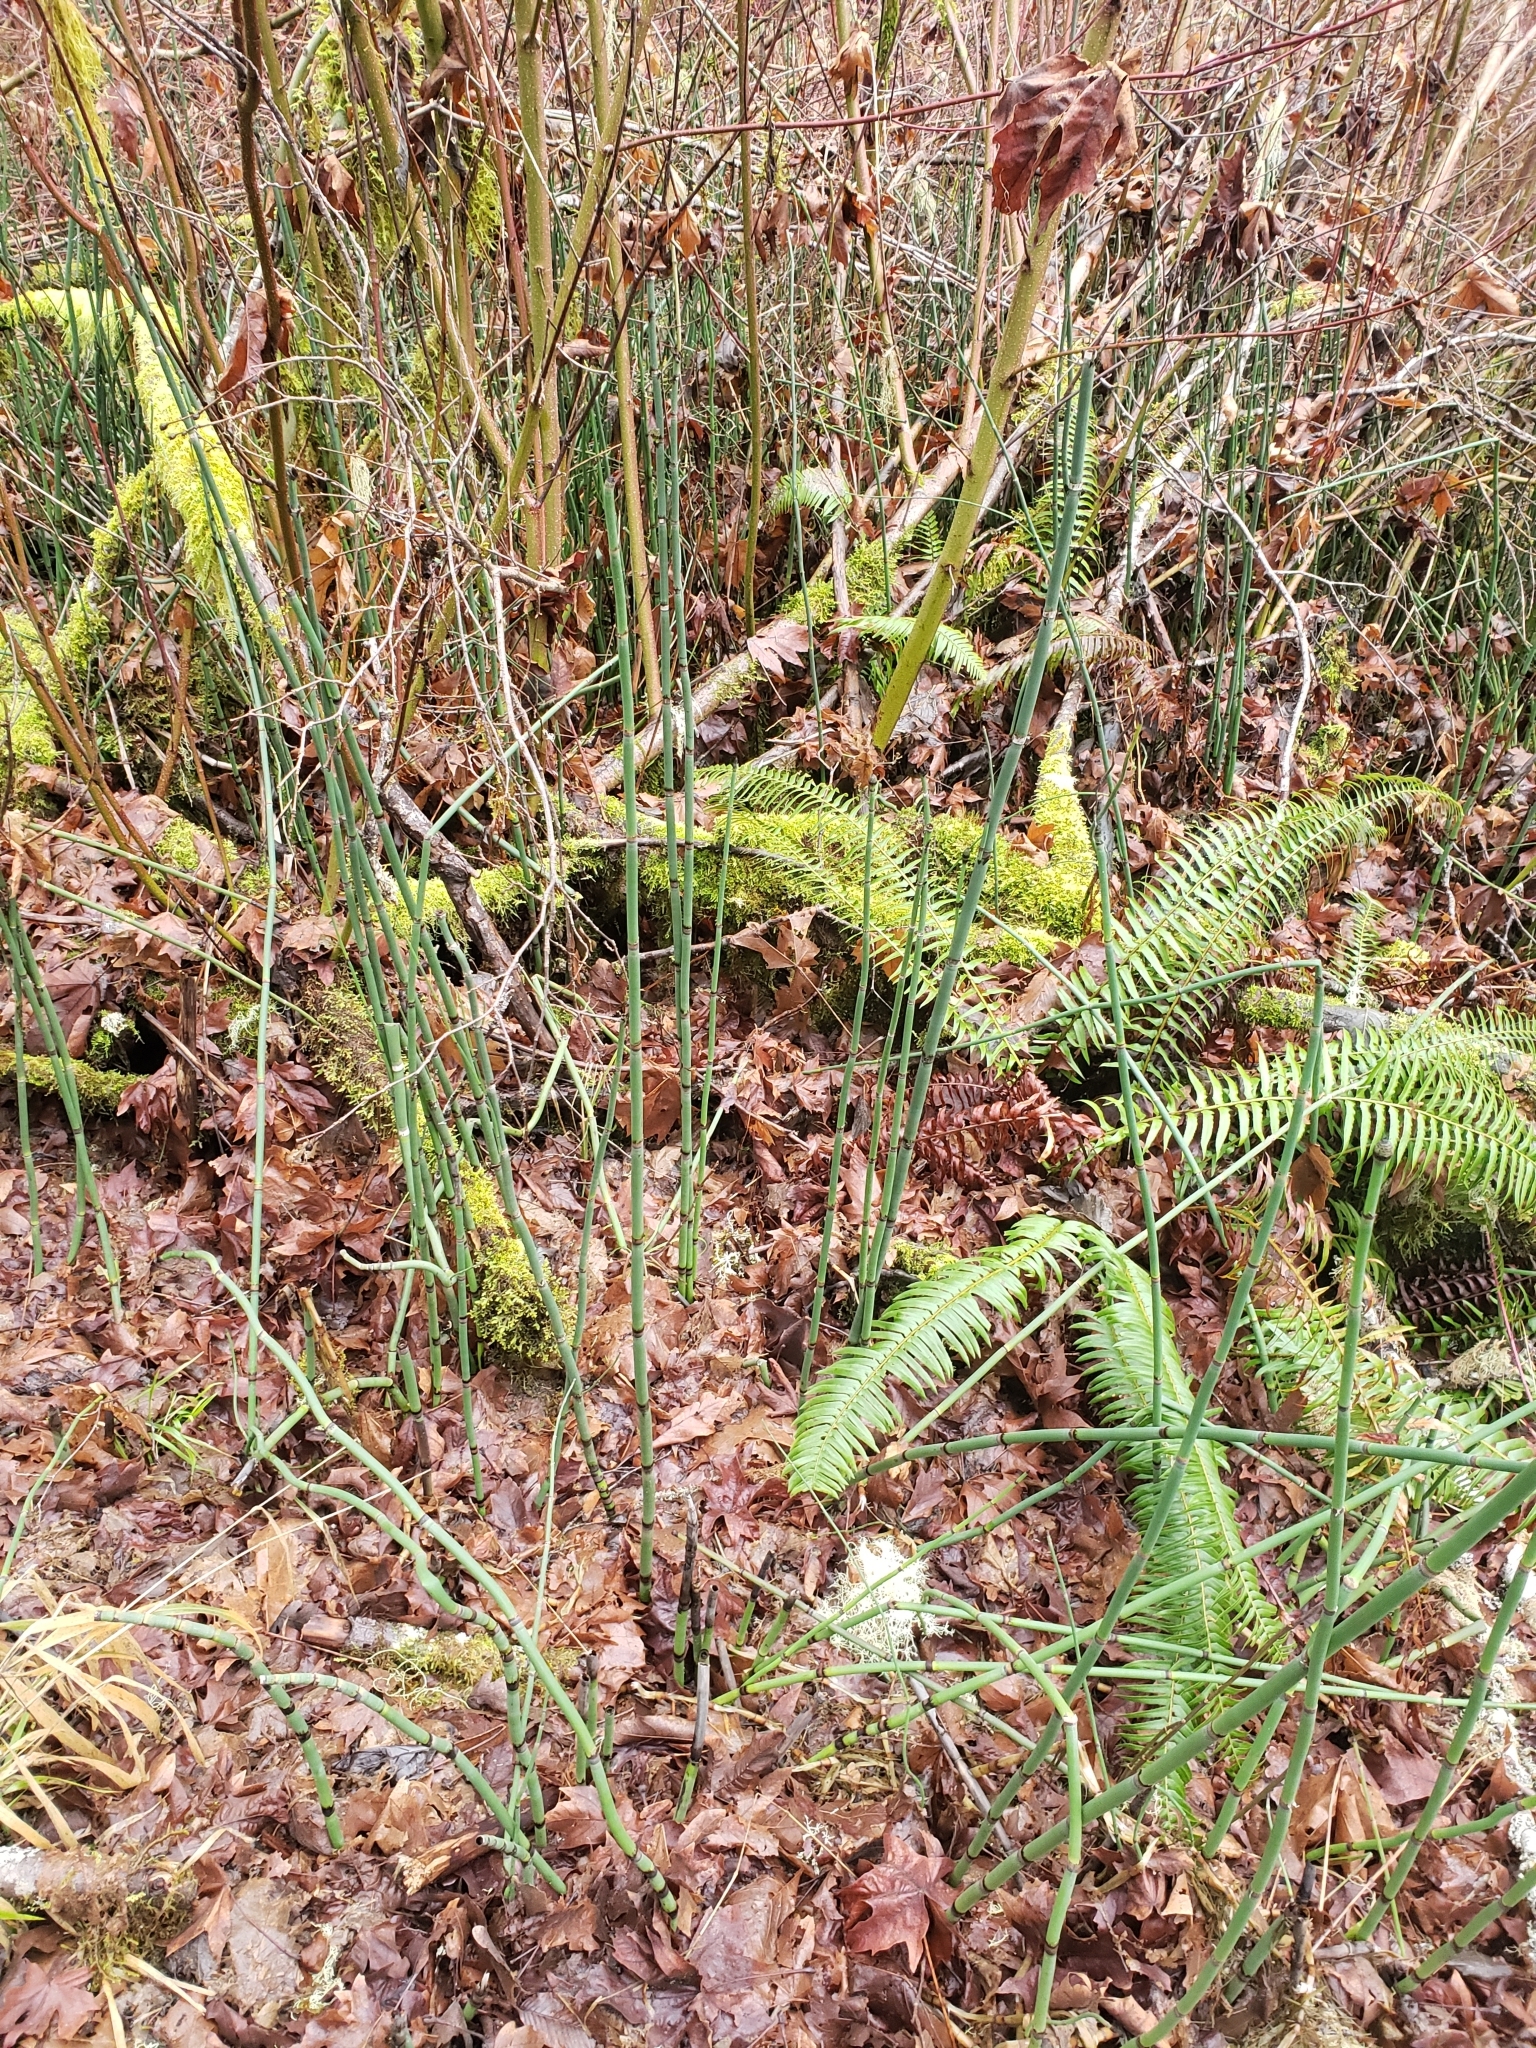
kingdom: Plantae
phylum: Tracheophyta
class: Polypodiopsida
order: Equisetales
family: Equisetaceae
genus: Equisetum
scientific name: Equisetum hyemale
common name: Rough horsetail
